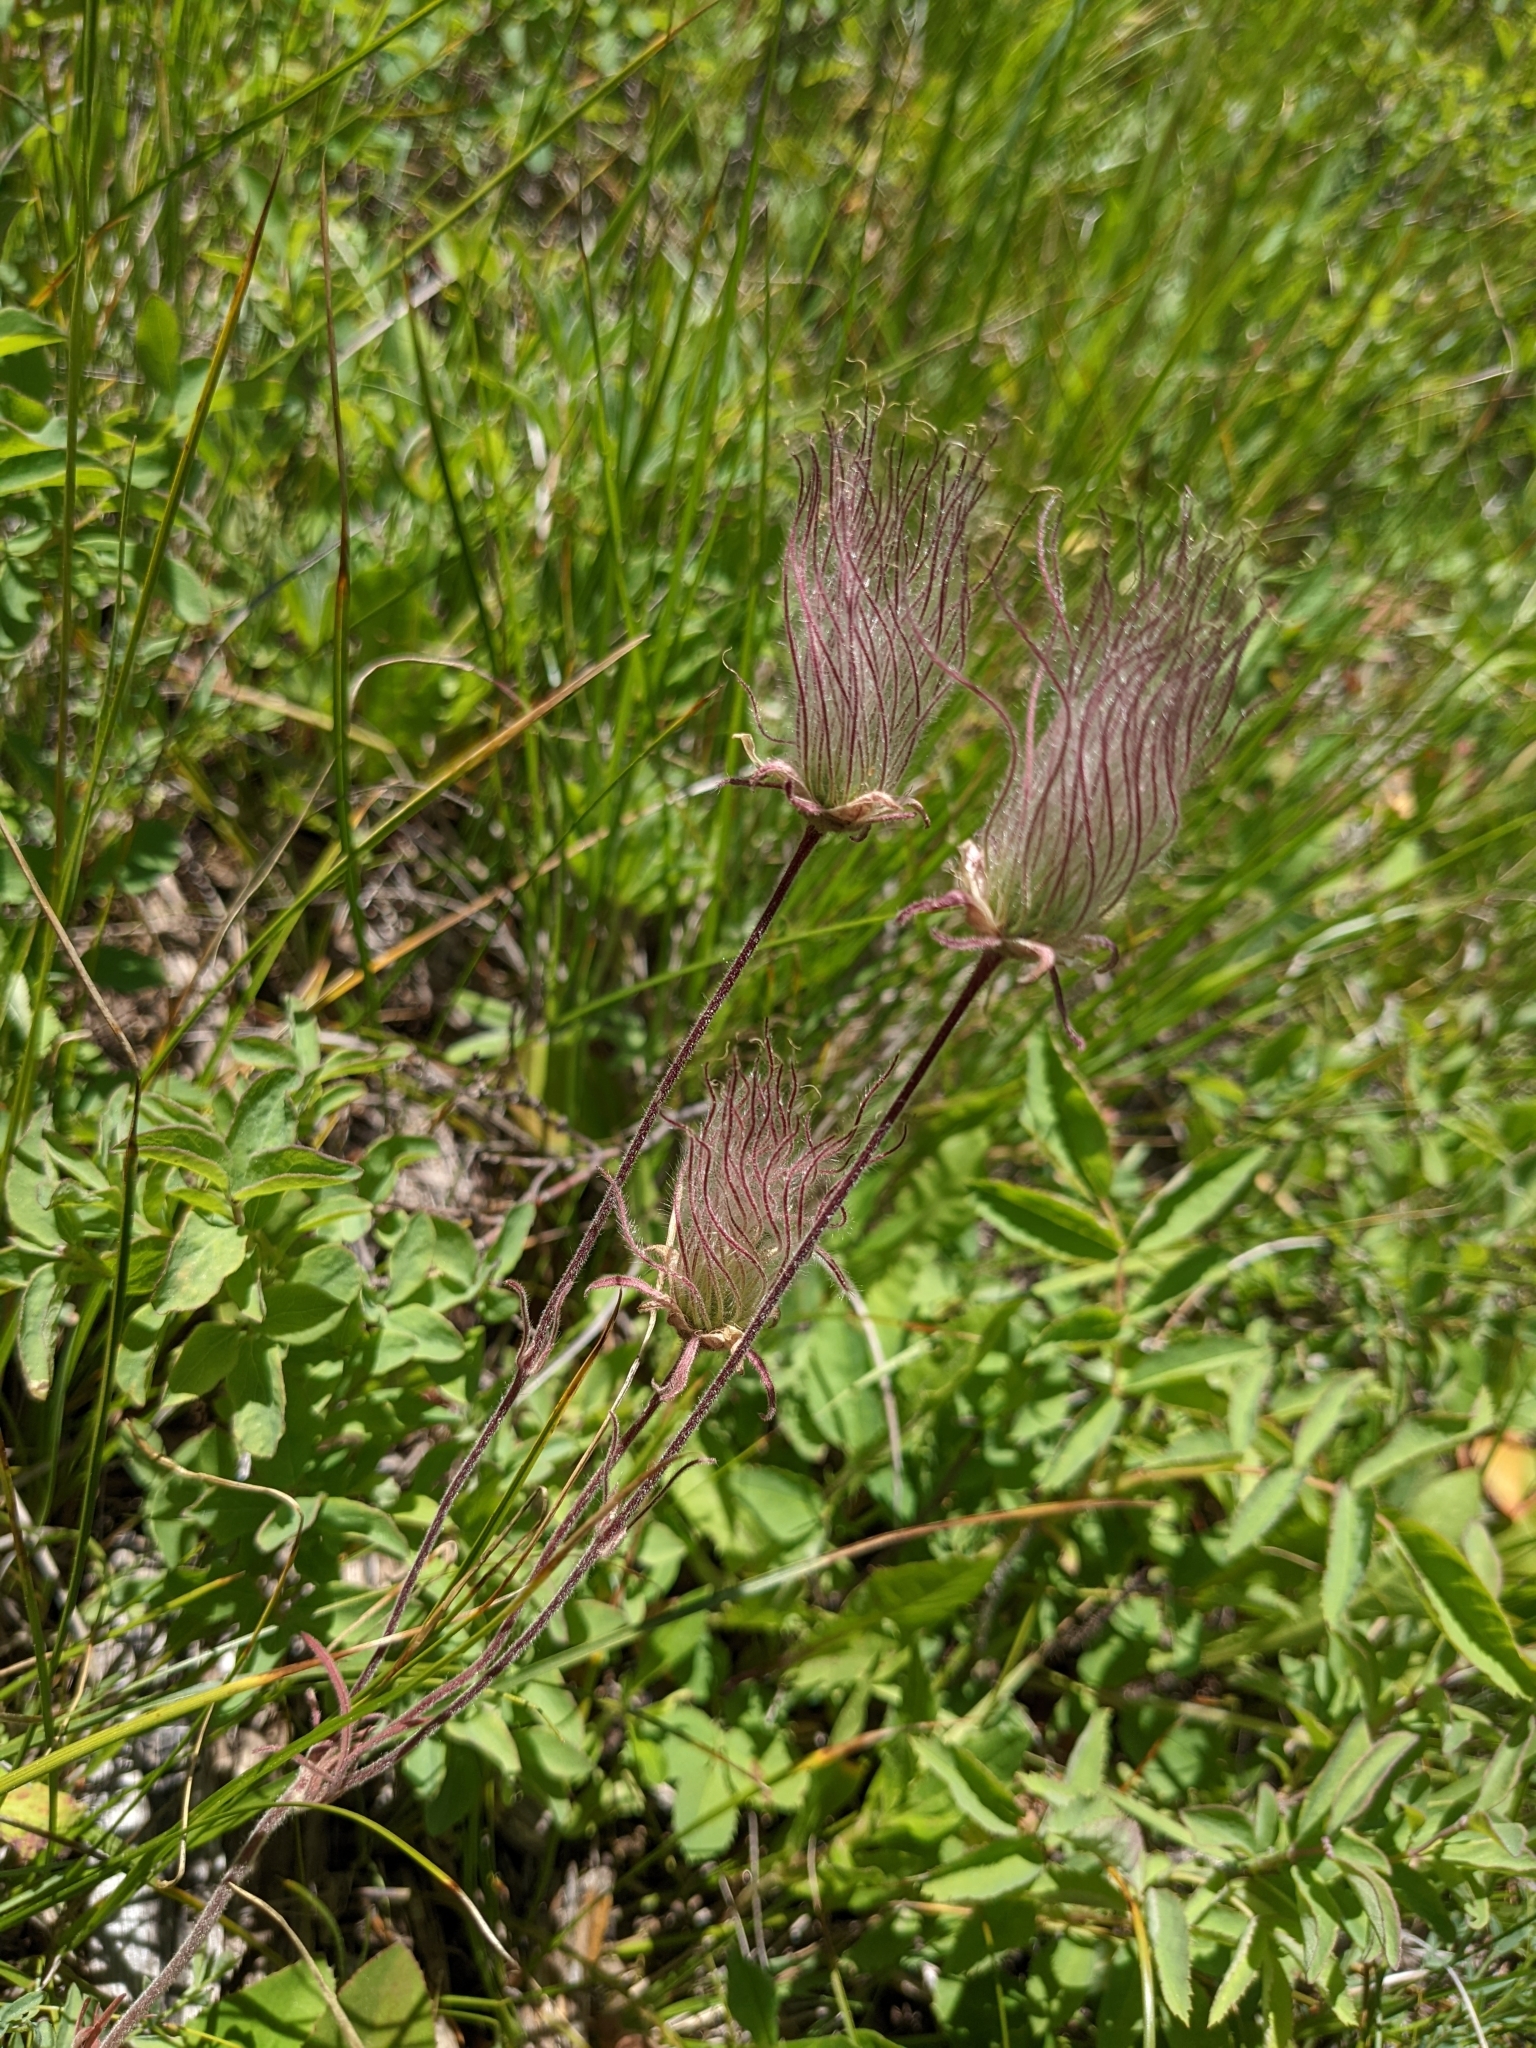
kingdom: Plantae
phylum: Tracheophyta
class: Magnoliopsida
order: Rosales
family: Rosaceae
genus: Geum
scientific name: Geum triflorum
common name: Old man's whiskers
